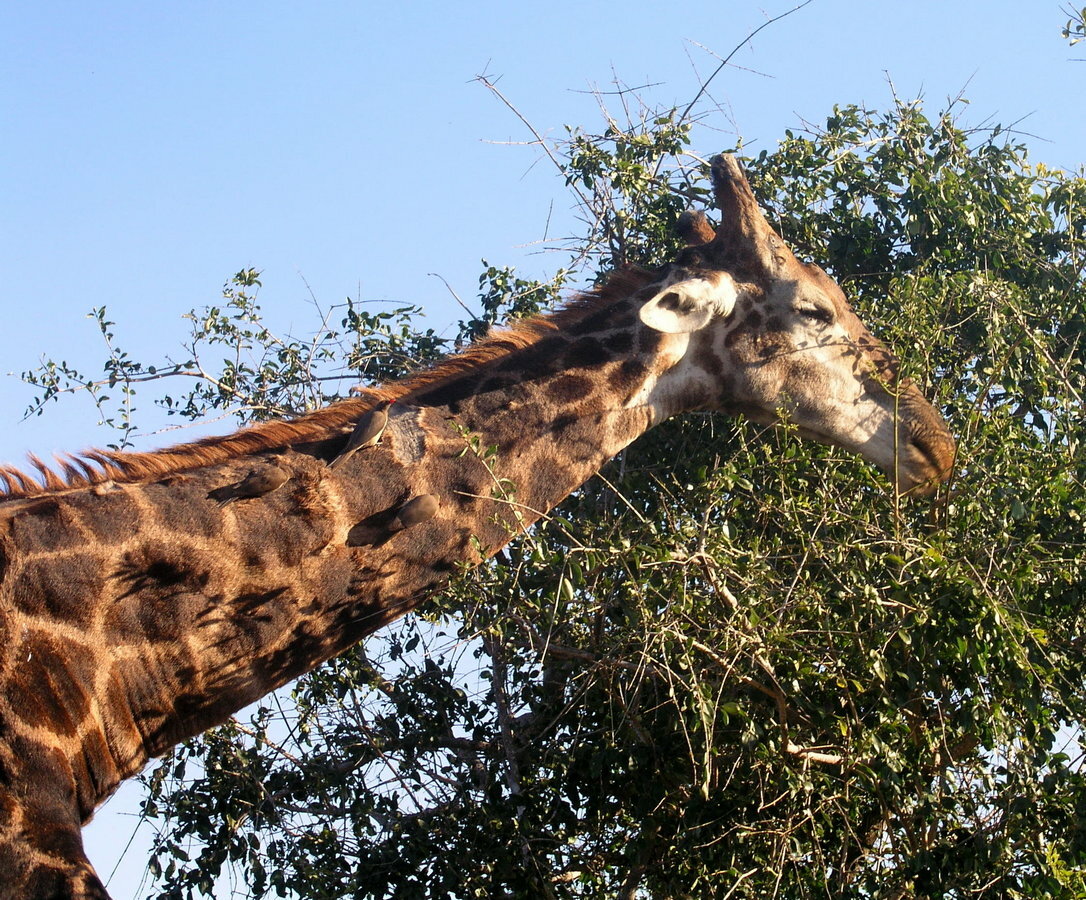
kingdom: Animalia
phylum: Chordata
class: Mammalia
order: Artiodactyla
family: Giraffidae
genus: Giraffa
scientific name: Giraffa giraffa
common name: Southern giraffe
